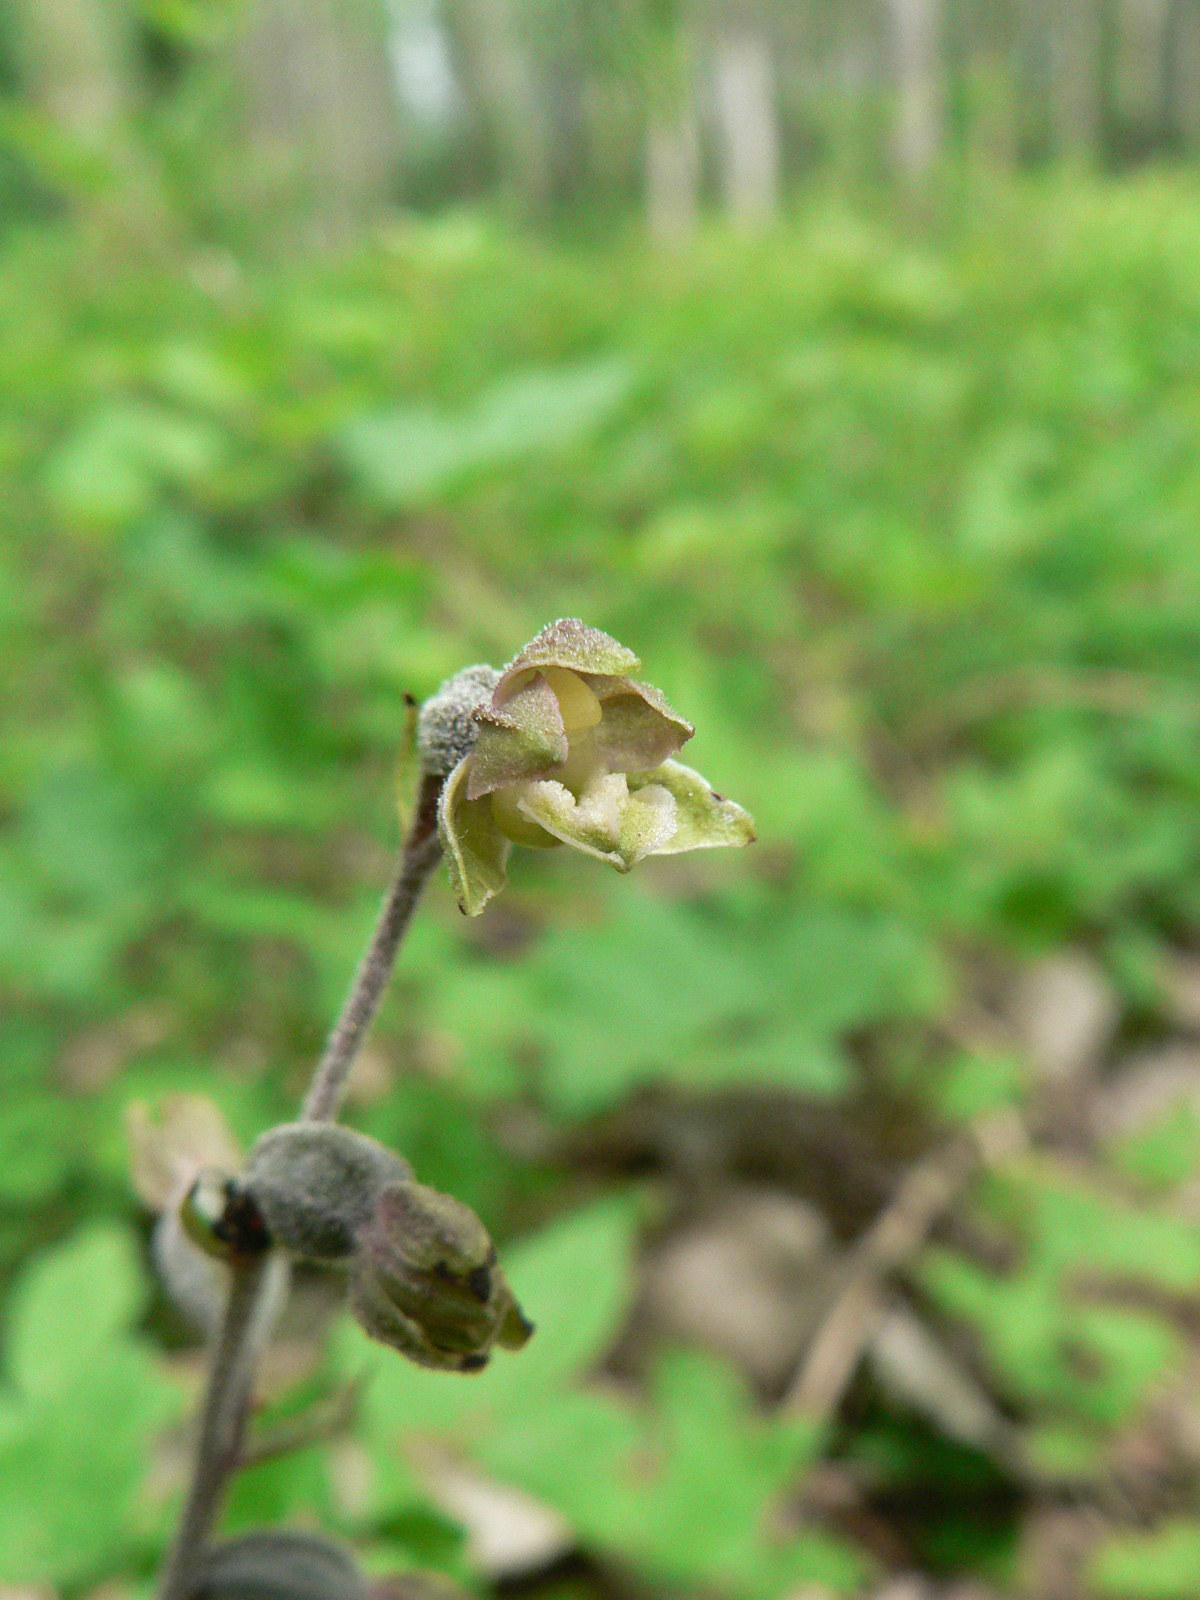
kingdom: Plantae
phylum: Tracheophyta
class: Liliopsida
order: Asparagales
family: Orchidaceae
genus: Epipactis
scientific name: Epipactis microphylla
